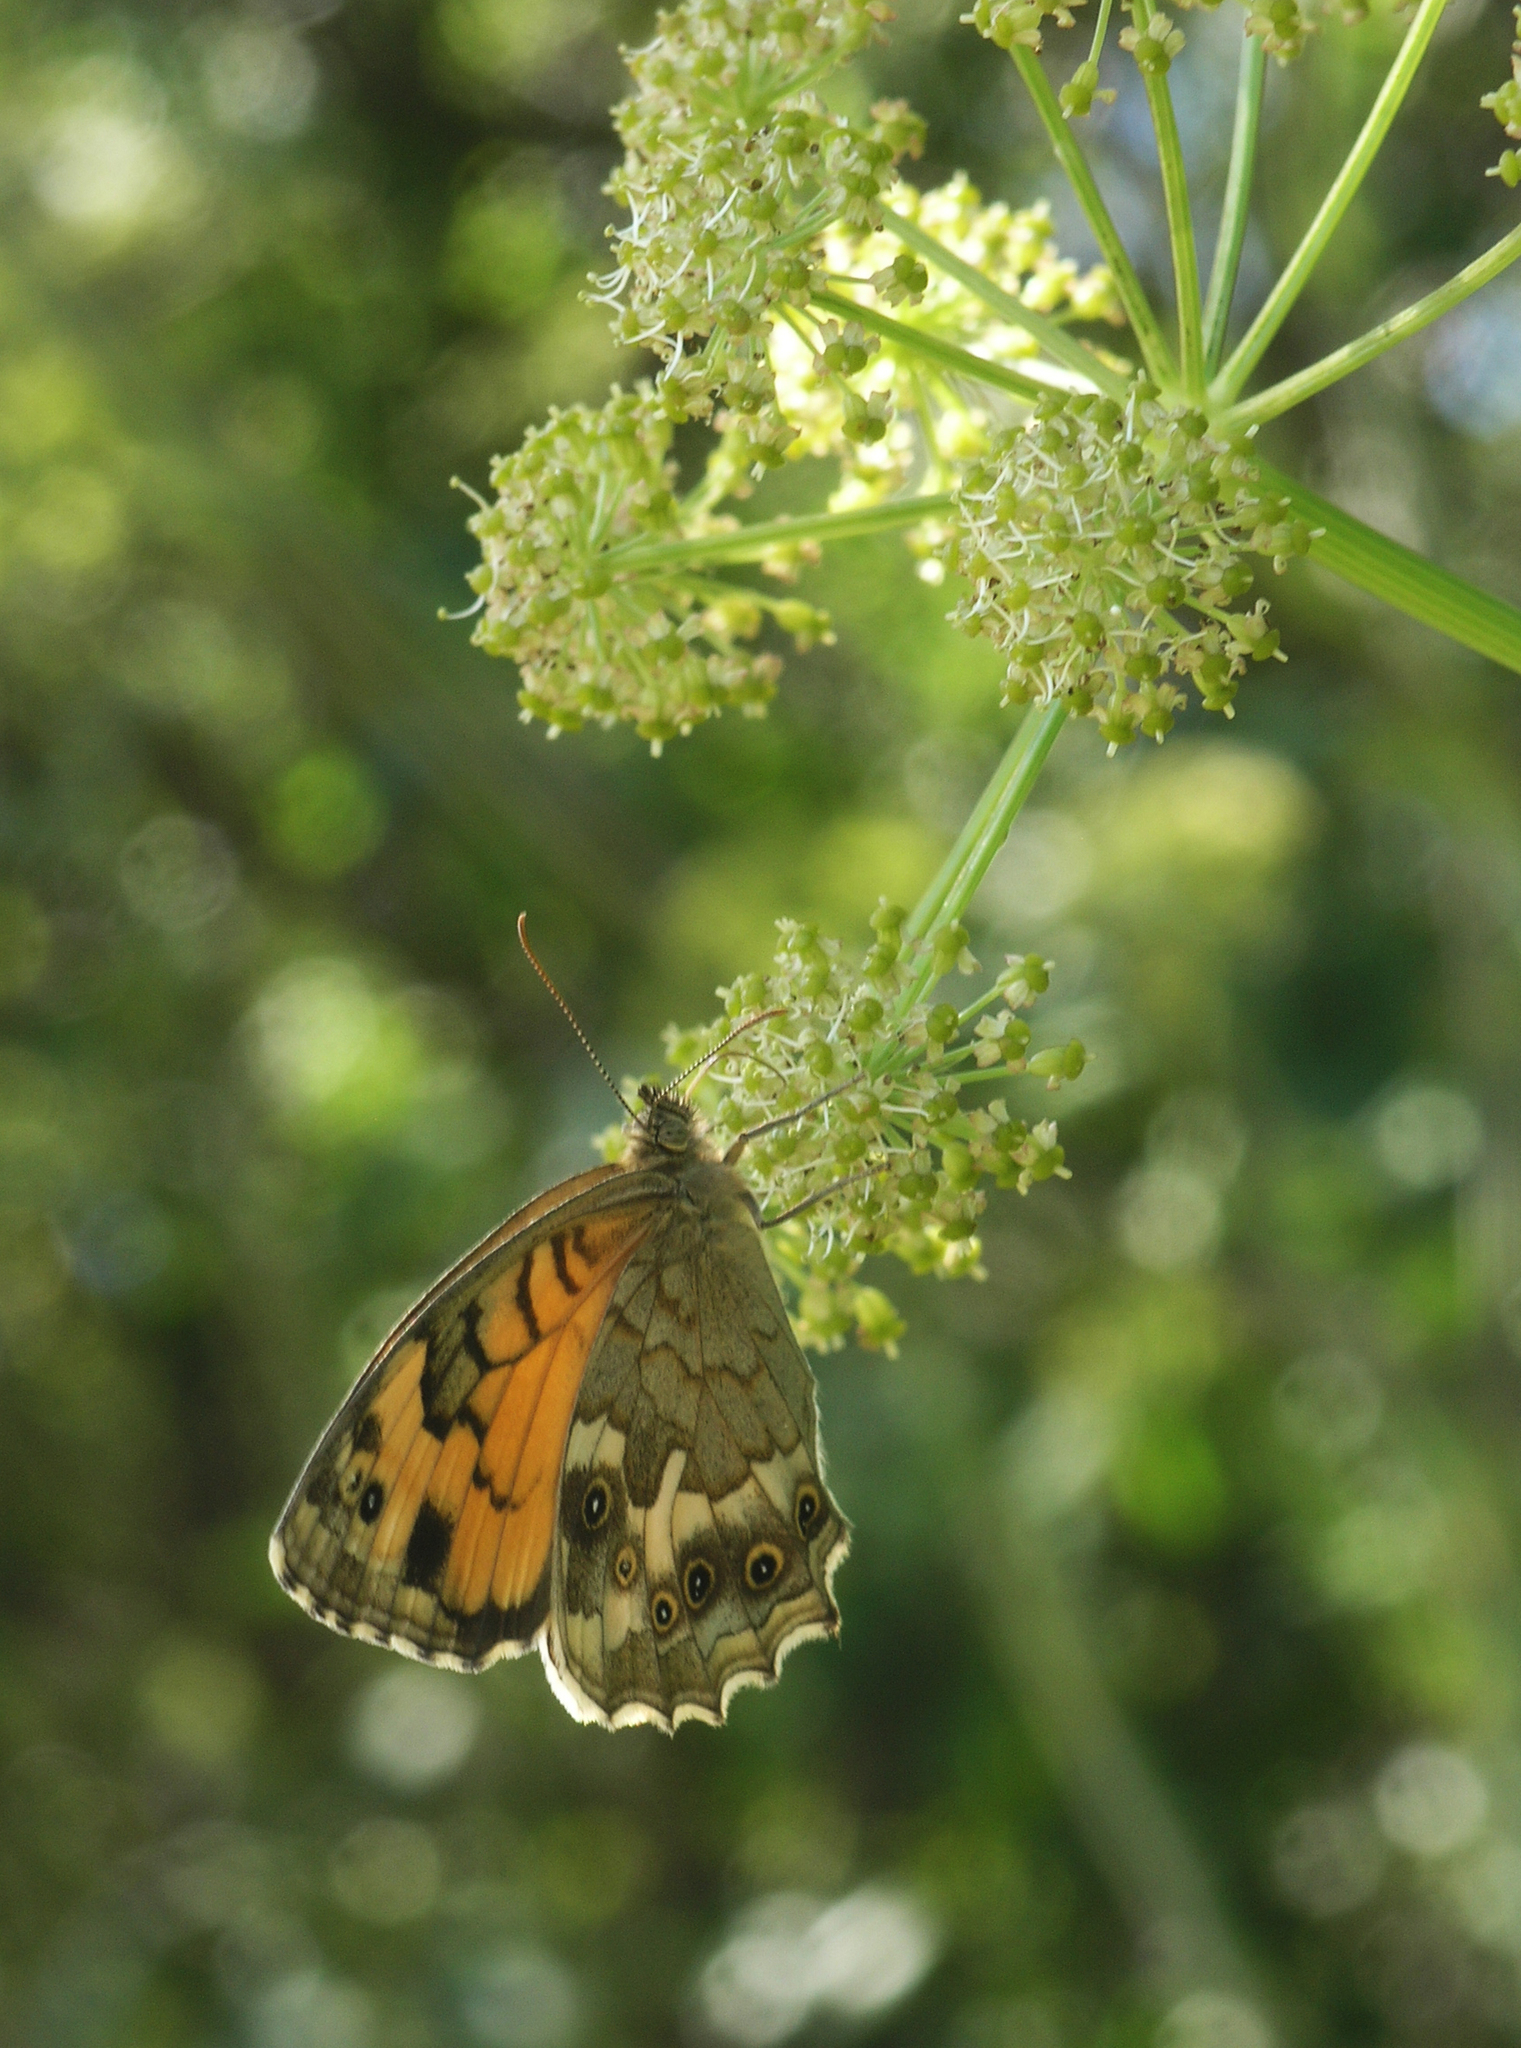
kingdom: Animalia
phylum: Arthropoda
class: Insecta
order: Lepidoptera
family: Nymphalidae
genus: Kirinia
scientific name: Kirinia eversmanni
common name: Yellow wall butterfly
